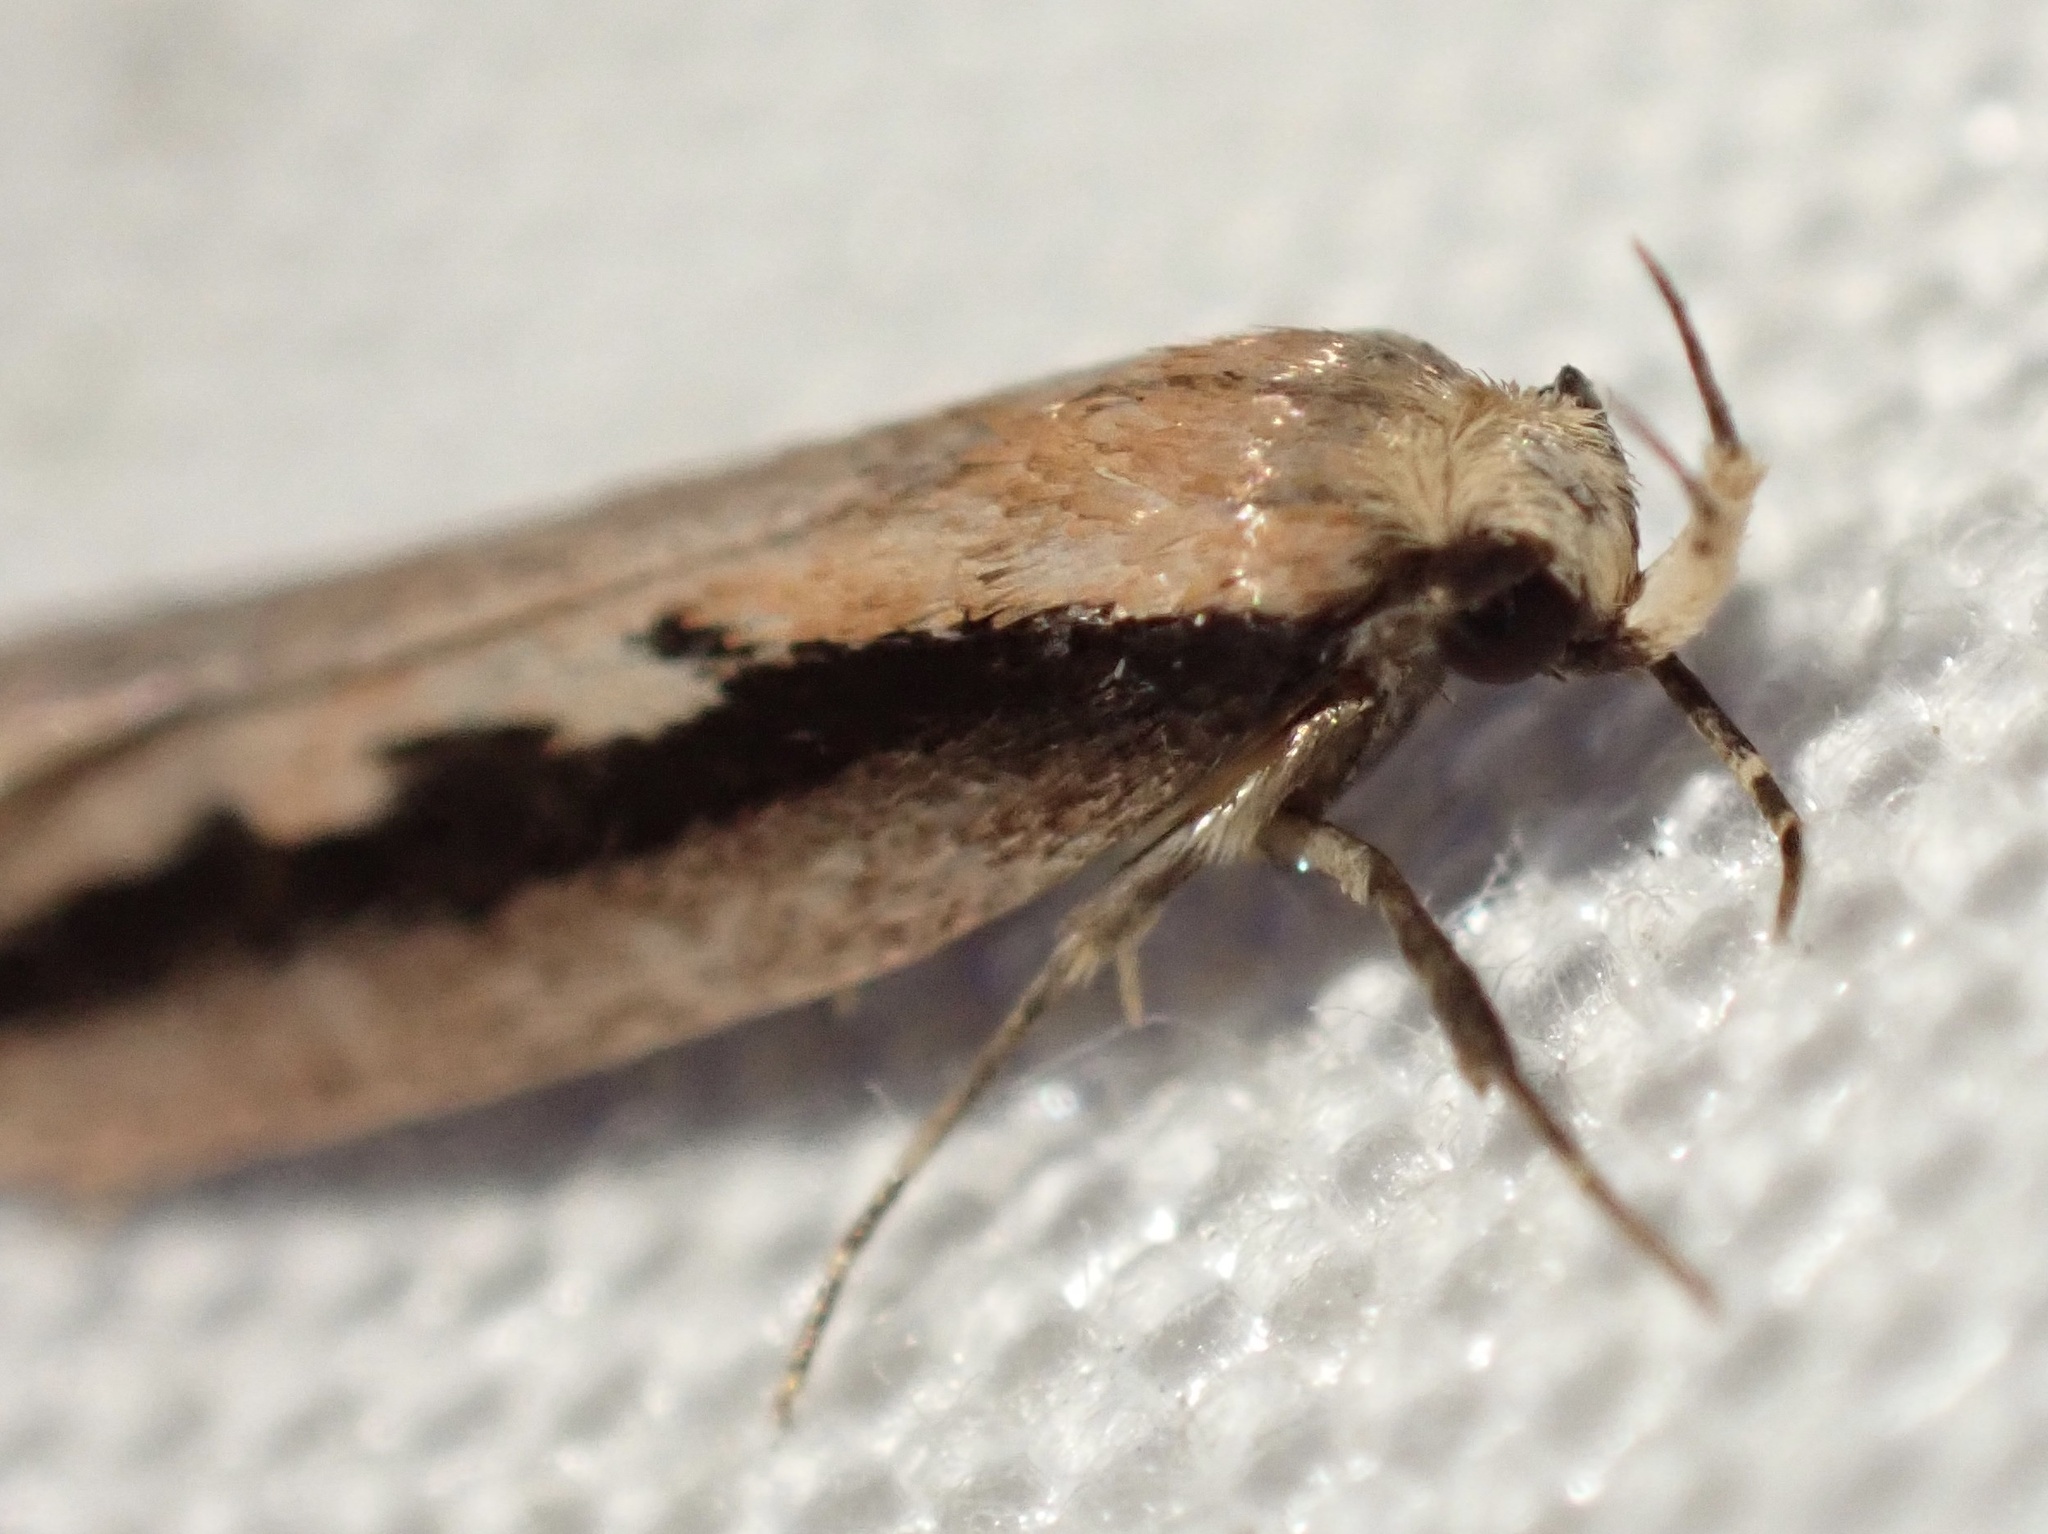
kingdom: Animalia
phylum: Arthropoda
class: Insecta
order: Lepidoptera
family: Oecophoridae
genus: Leptocroca
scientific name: Leptocroca sanguinolenta
